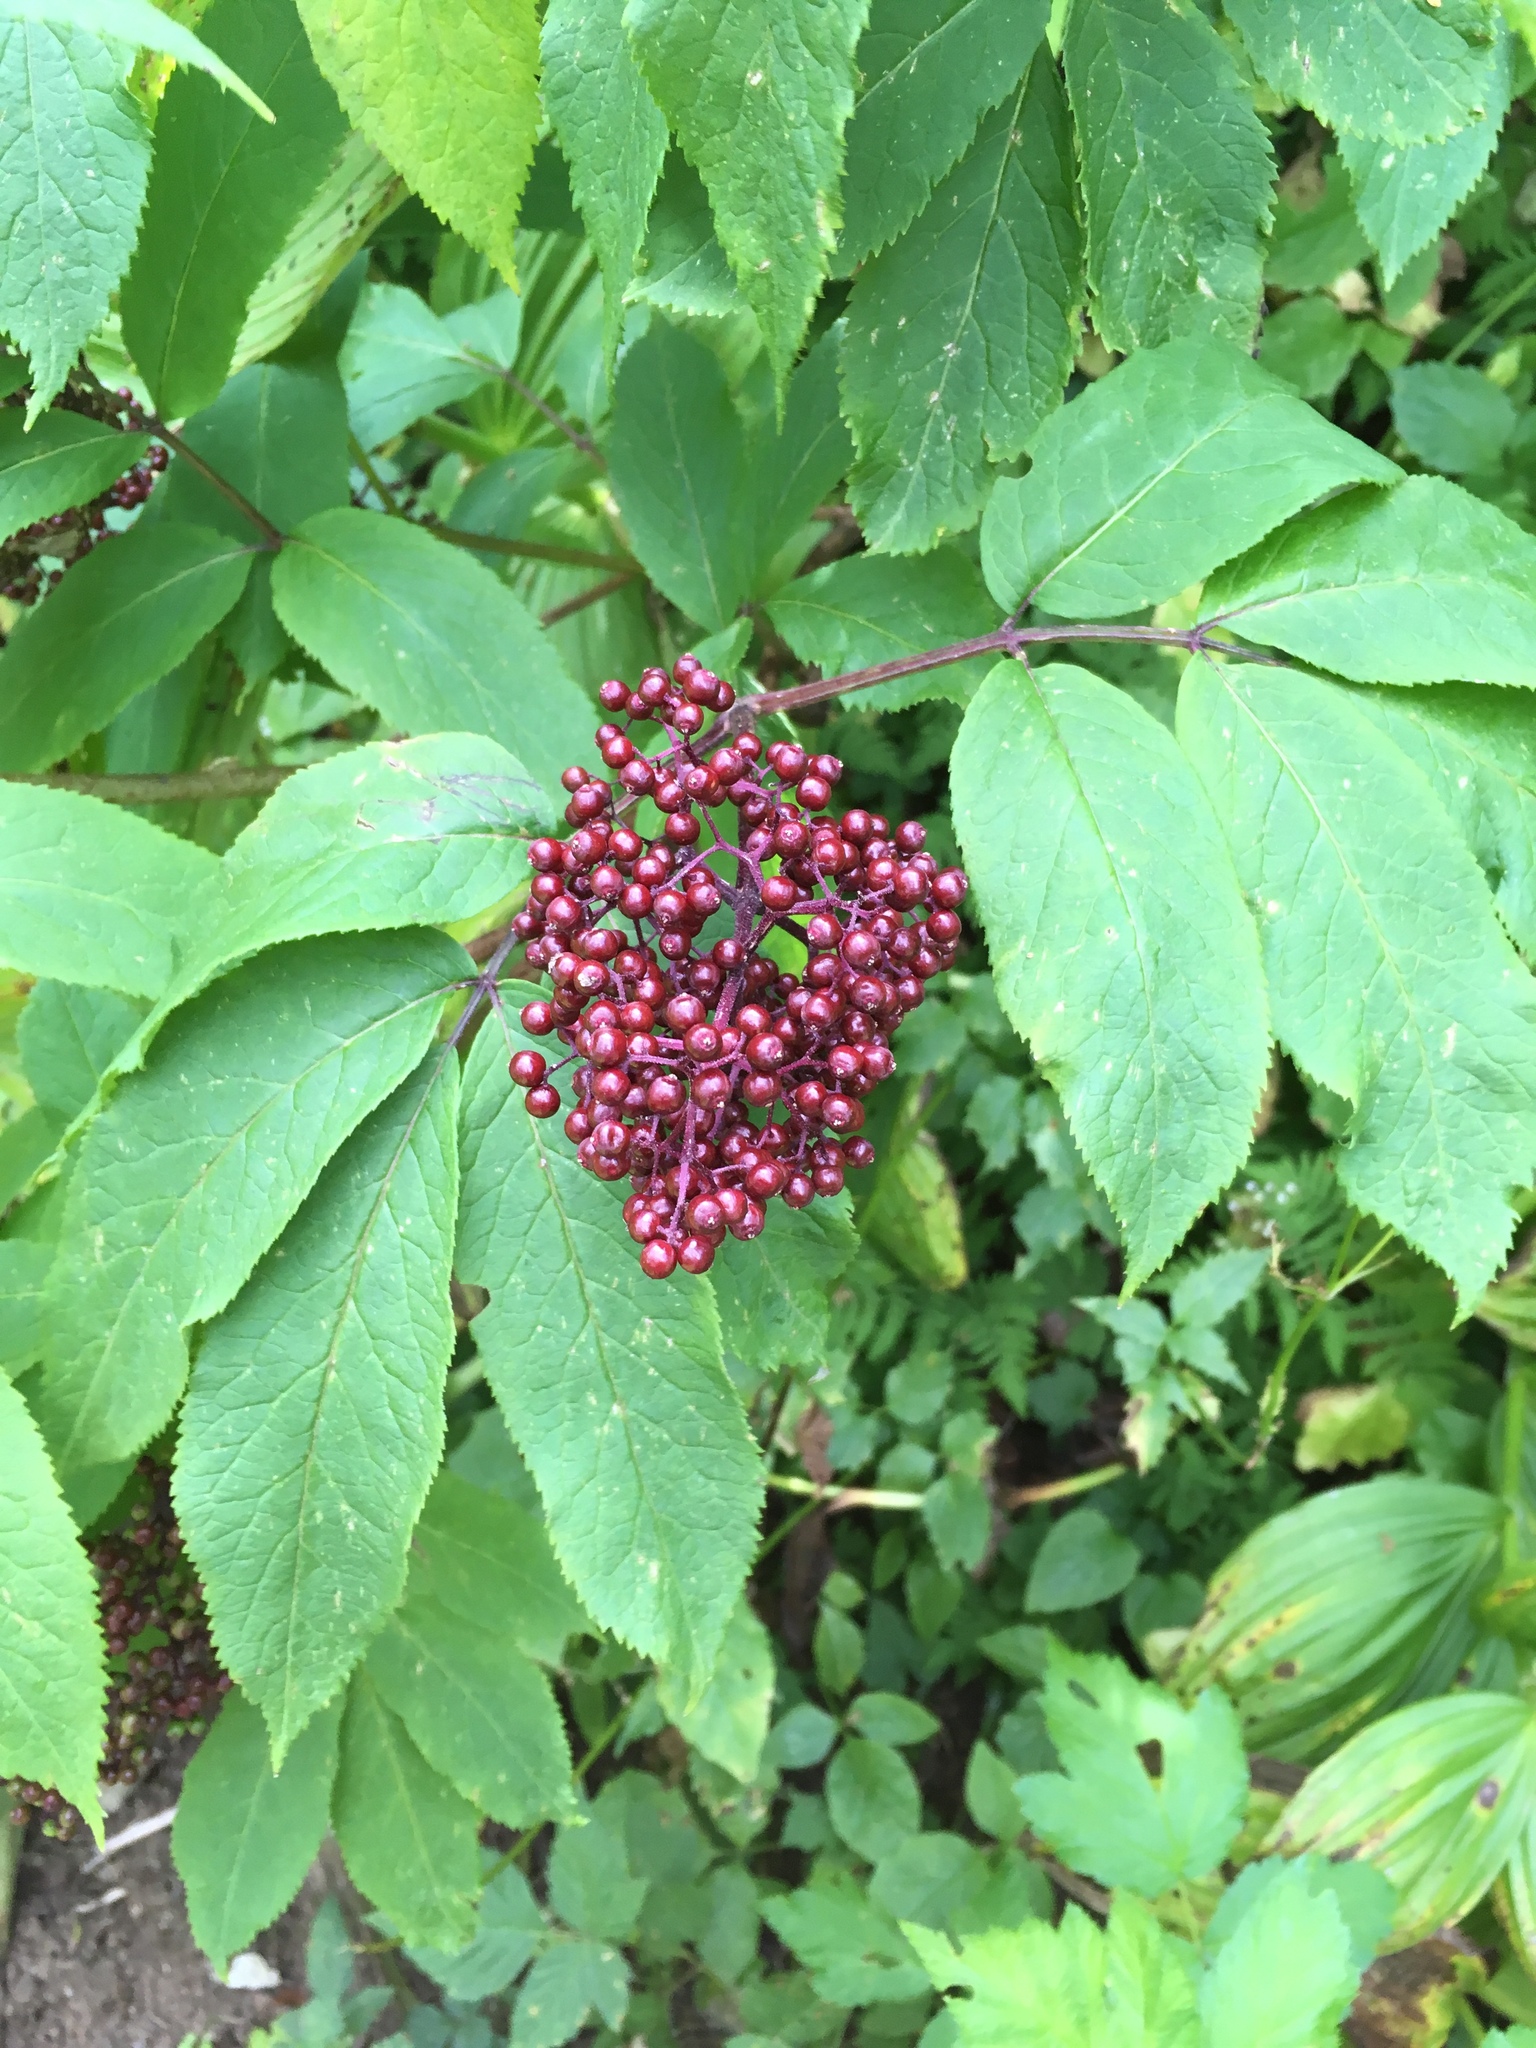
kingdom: Plantae
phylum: Tracheophyta
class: Magnoliopsida
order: Dipsacales
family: Viburnaceae
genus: Sambucus
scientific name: Sambucus racemosa
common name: Red-berried elder
